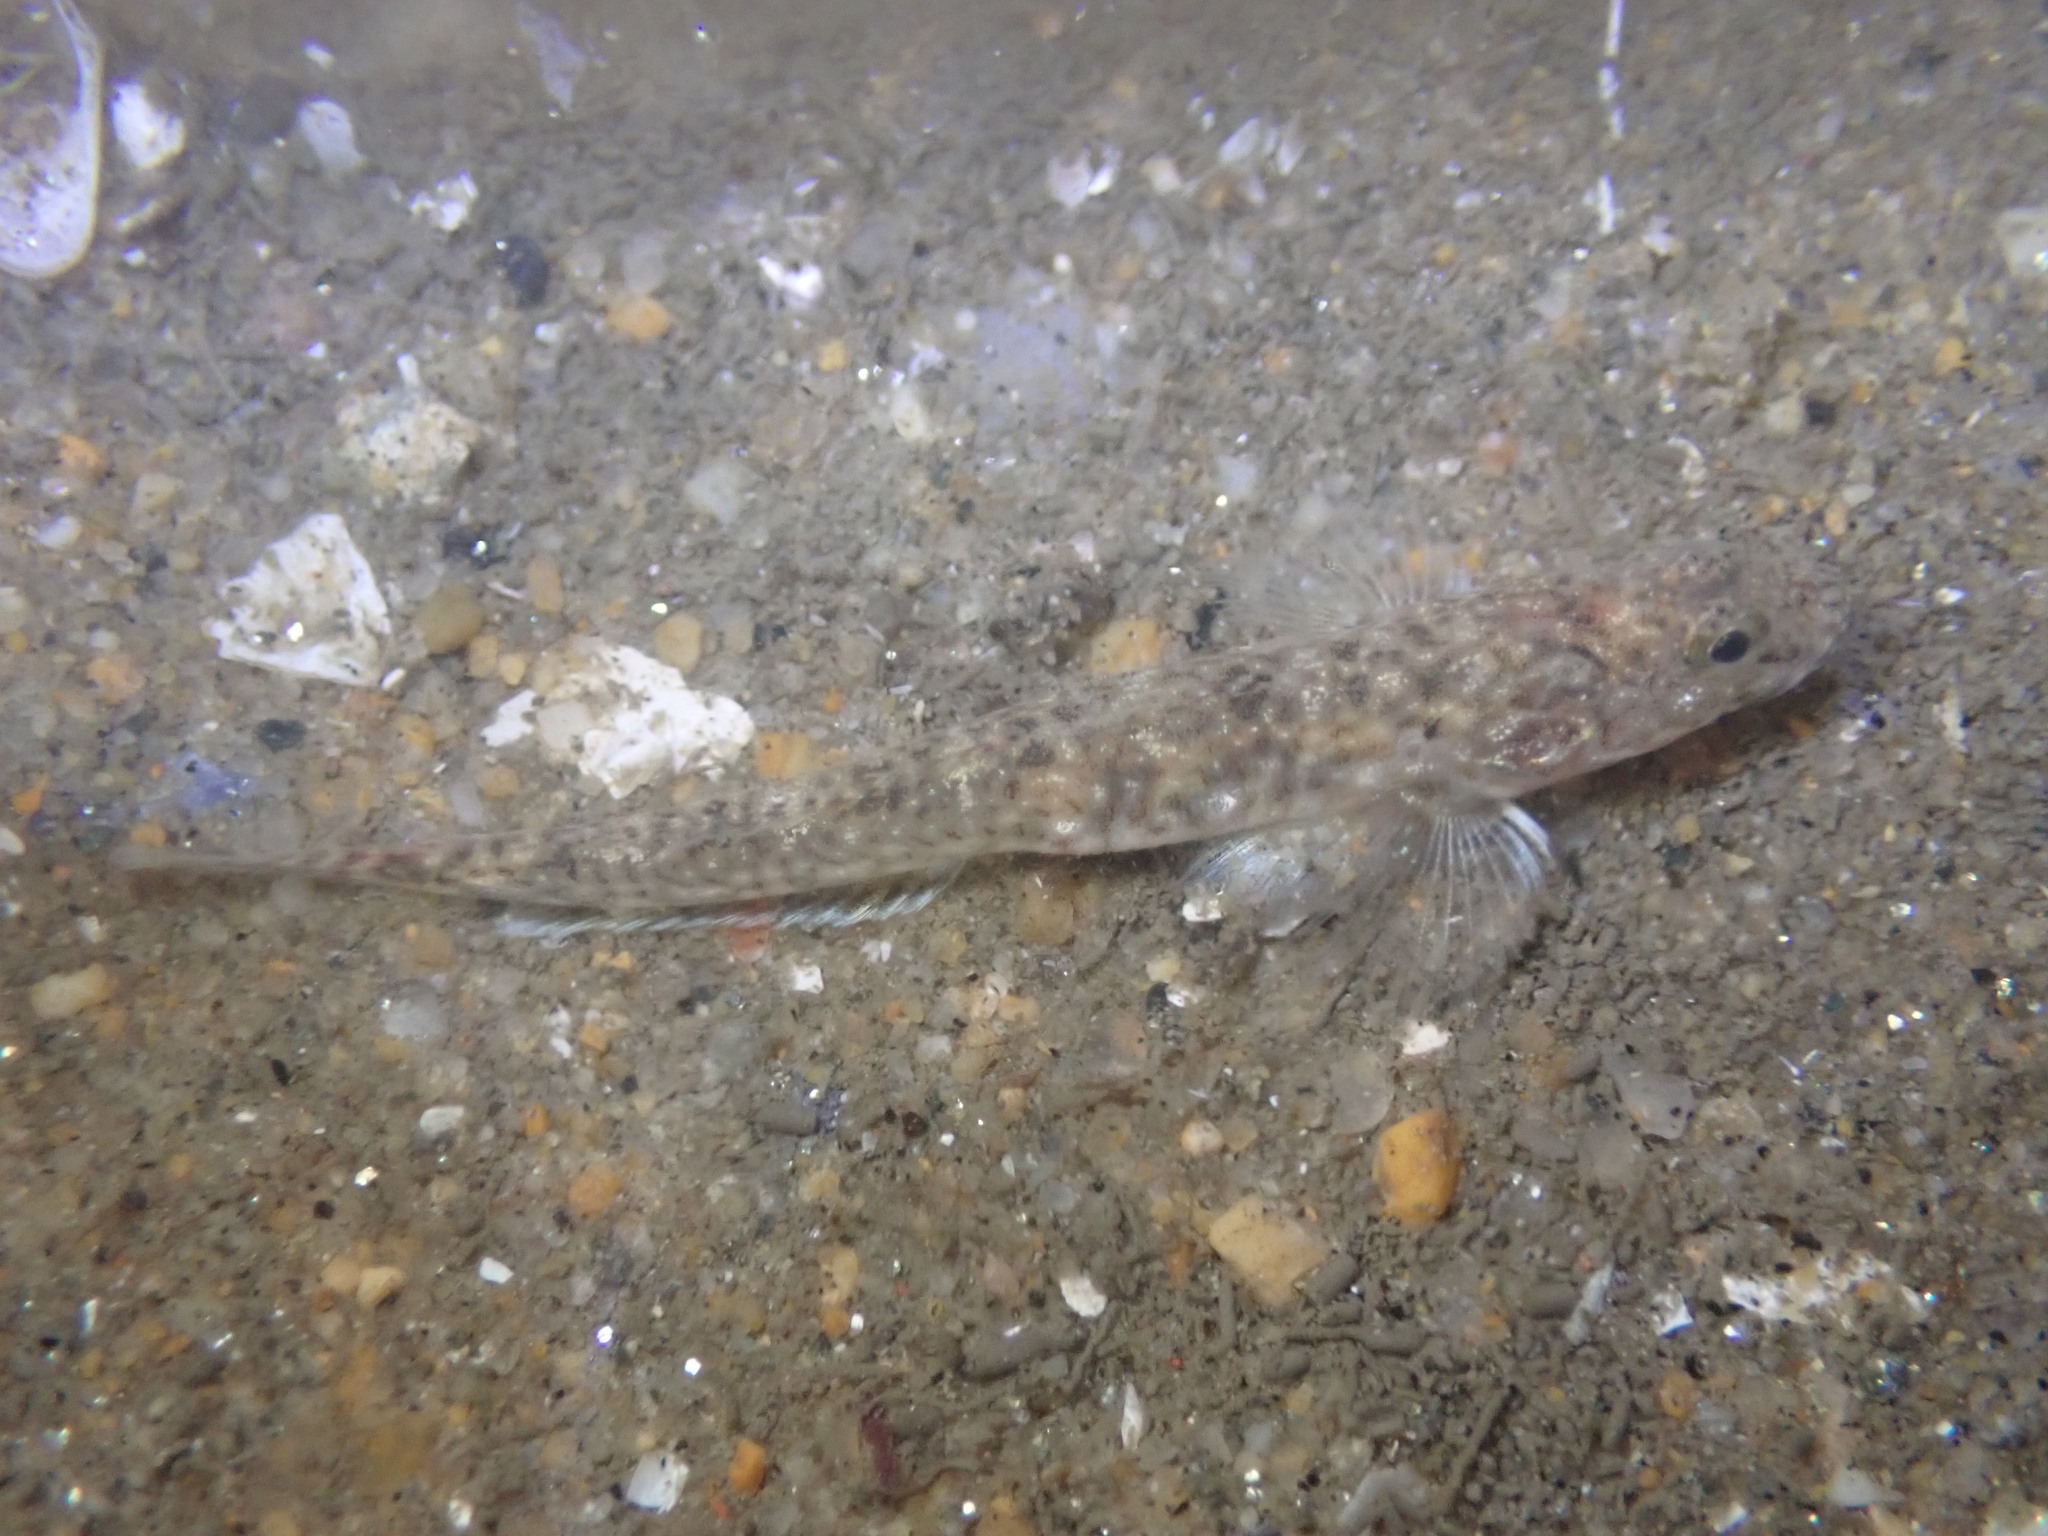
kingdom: Animalia
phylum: Chordata
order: Perciformes
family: Gobiidae
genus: Clevelandia
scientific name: Clevelandia ios
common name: Arrow goby
